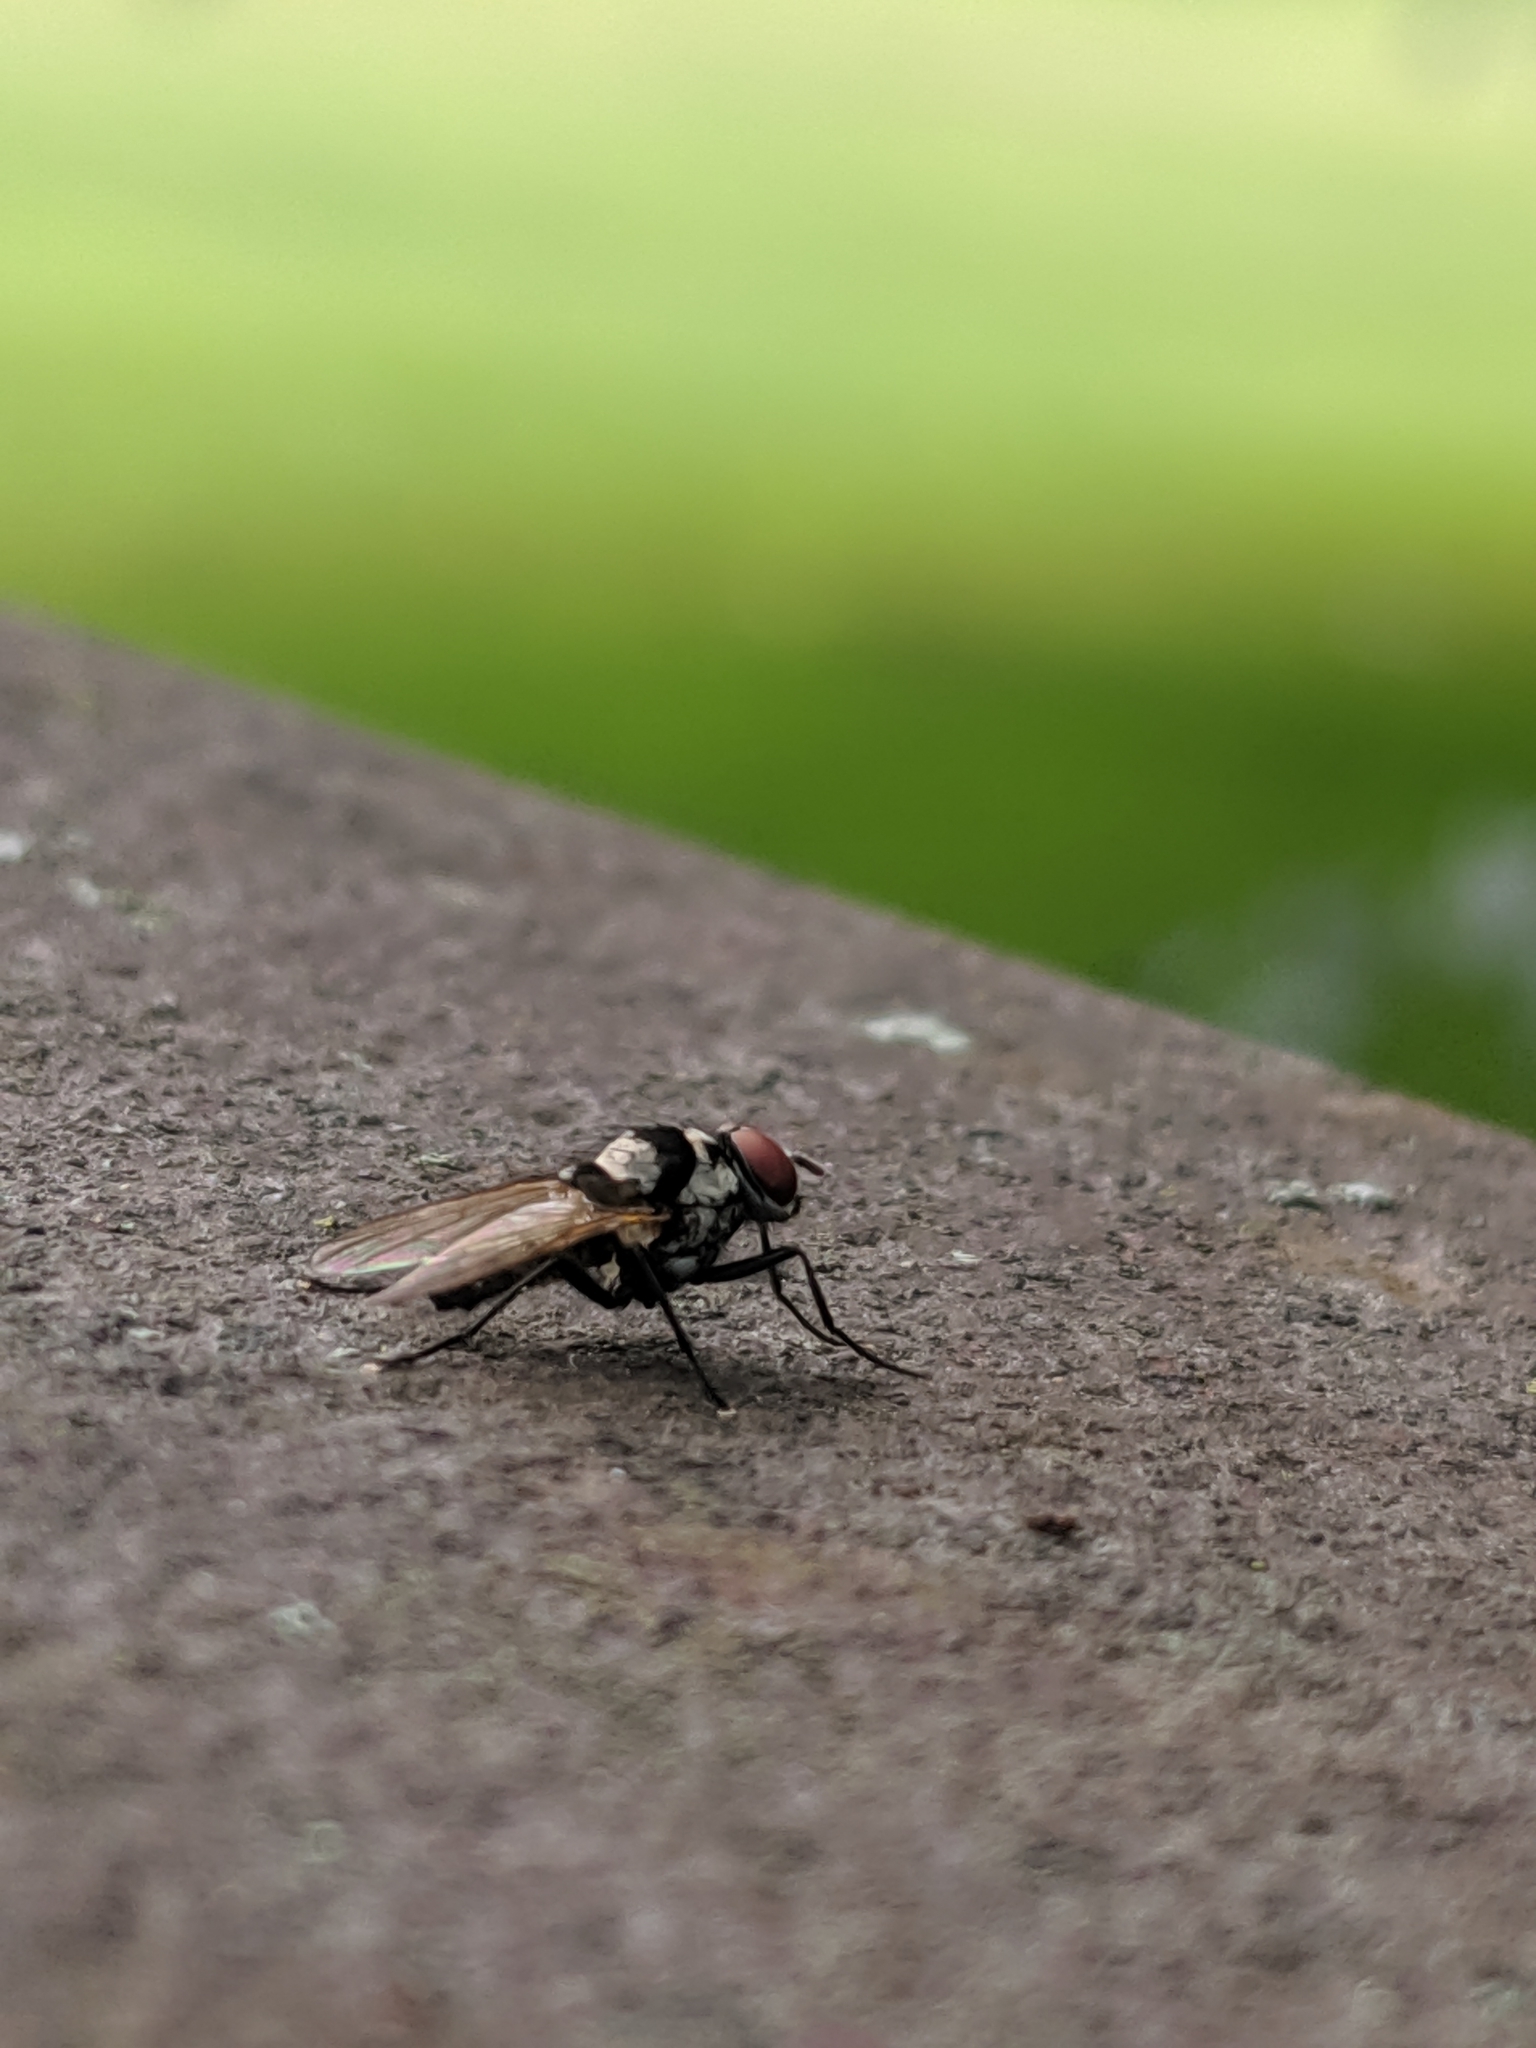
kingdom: Animalia
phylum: Arthropoda
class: Insecta
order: Diptera
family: Anthomyiidae
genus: Anthomyia
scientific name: Anthomyia oculifera
